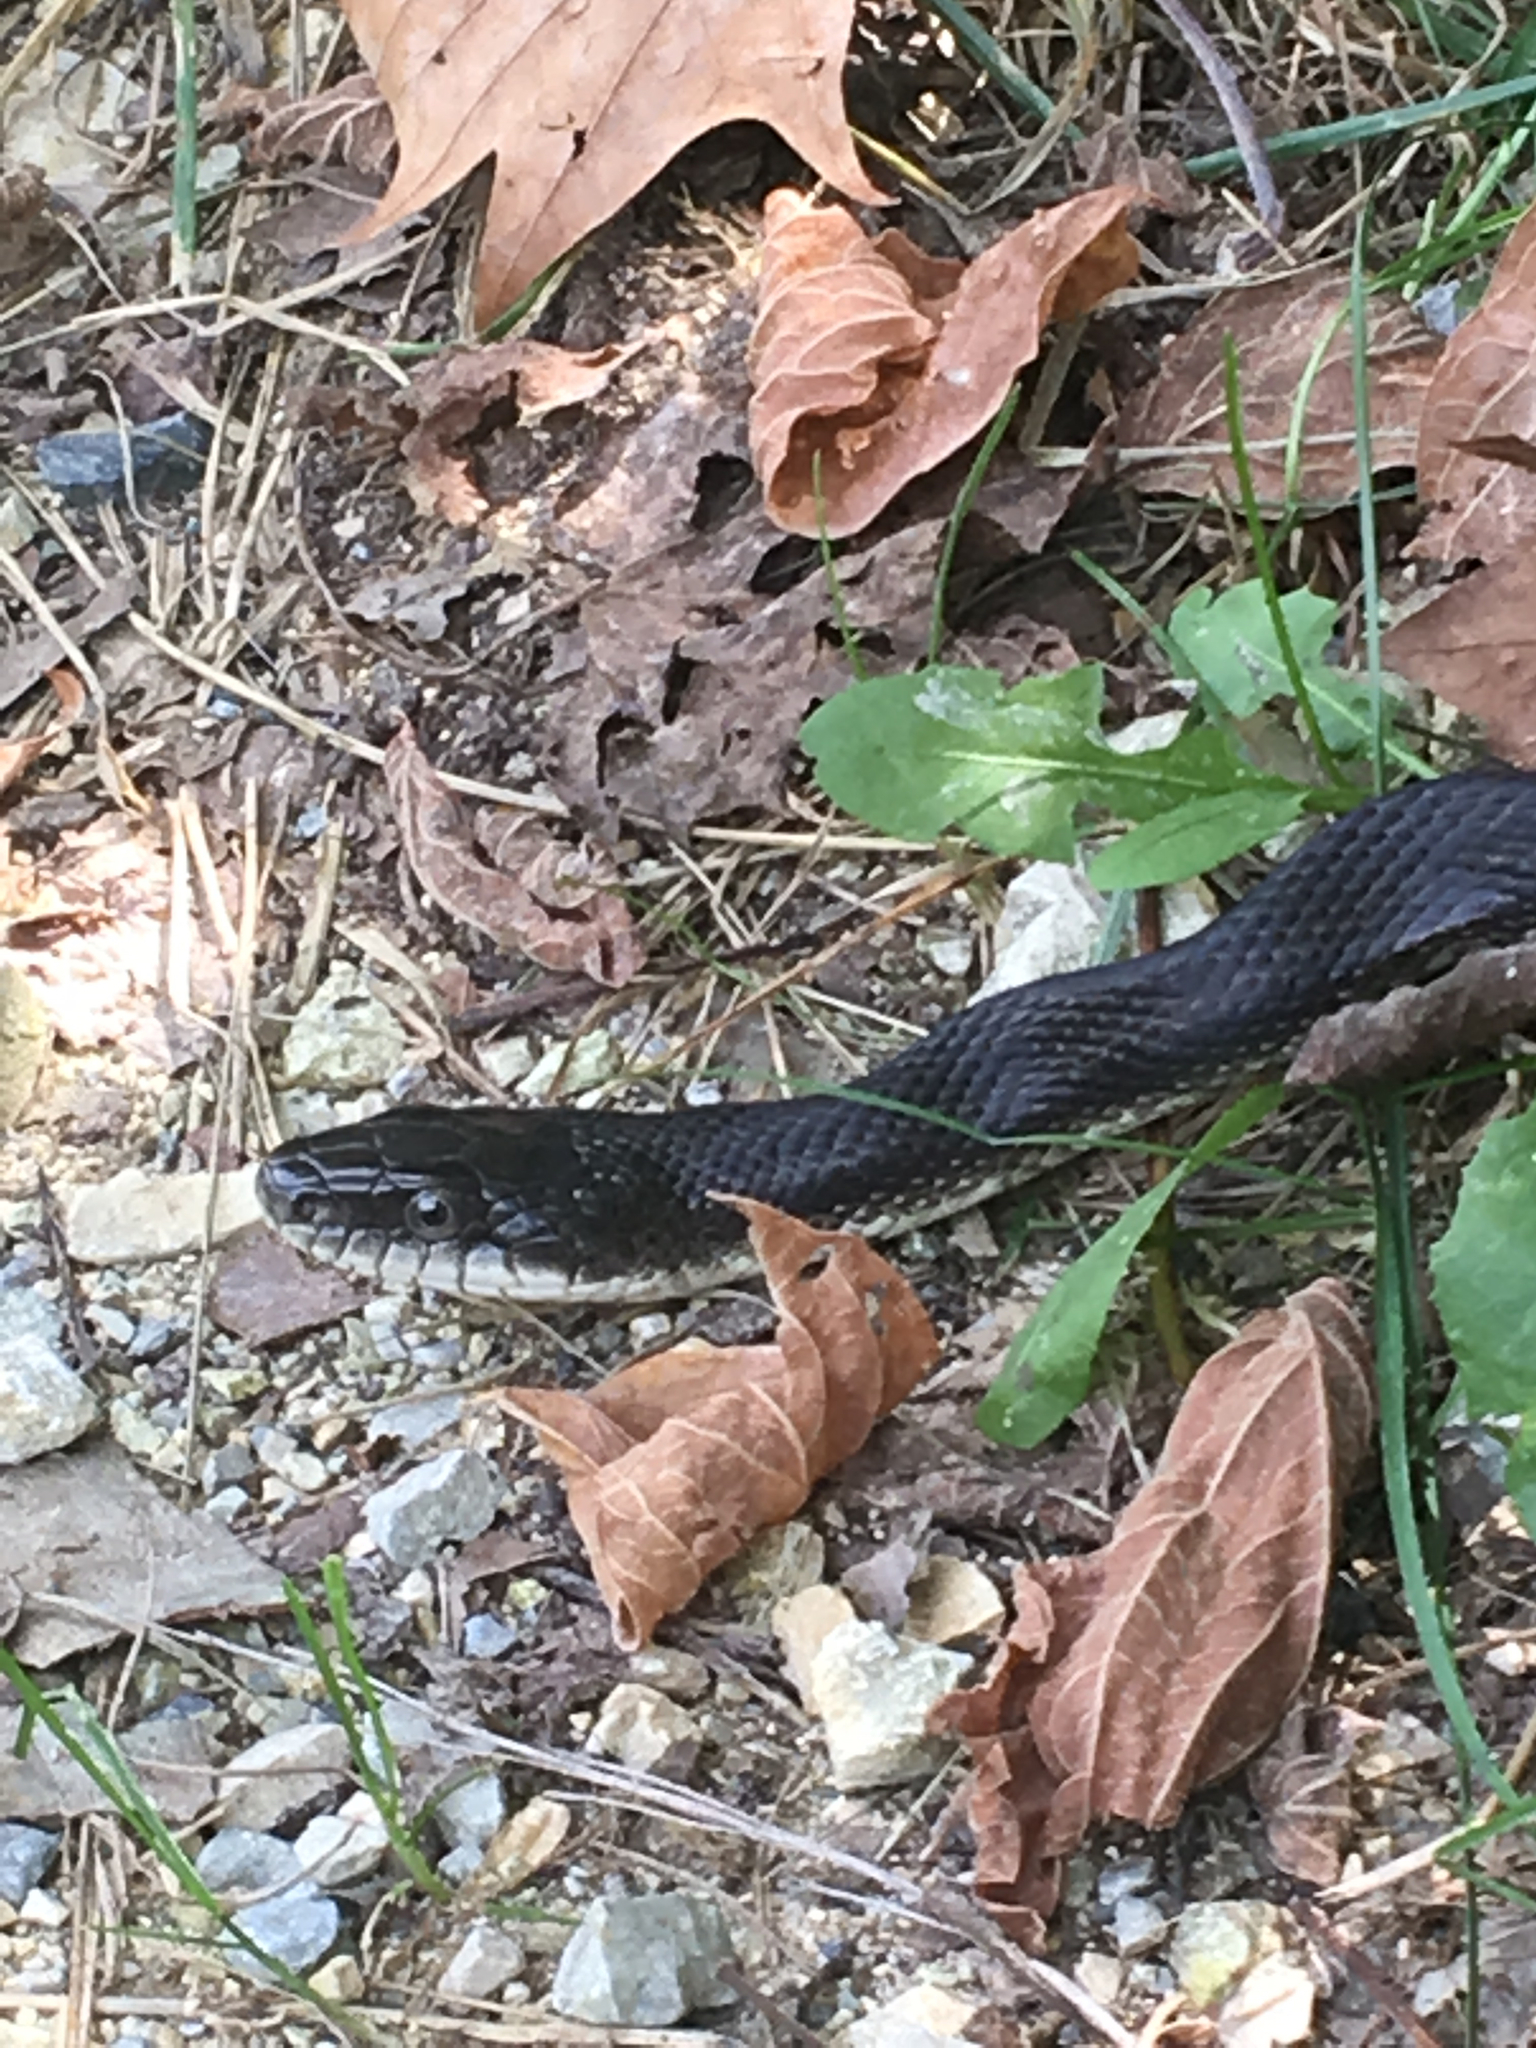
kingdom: Animalia
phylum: Chordata
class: Squamata
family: Colubridae
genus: Pantherophis
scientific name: Pantherophis alleghaniensis
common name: Eastern rat snake
